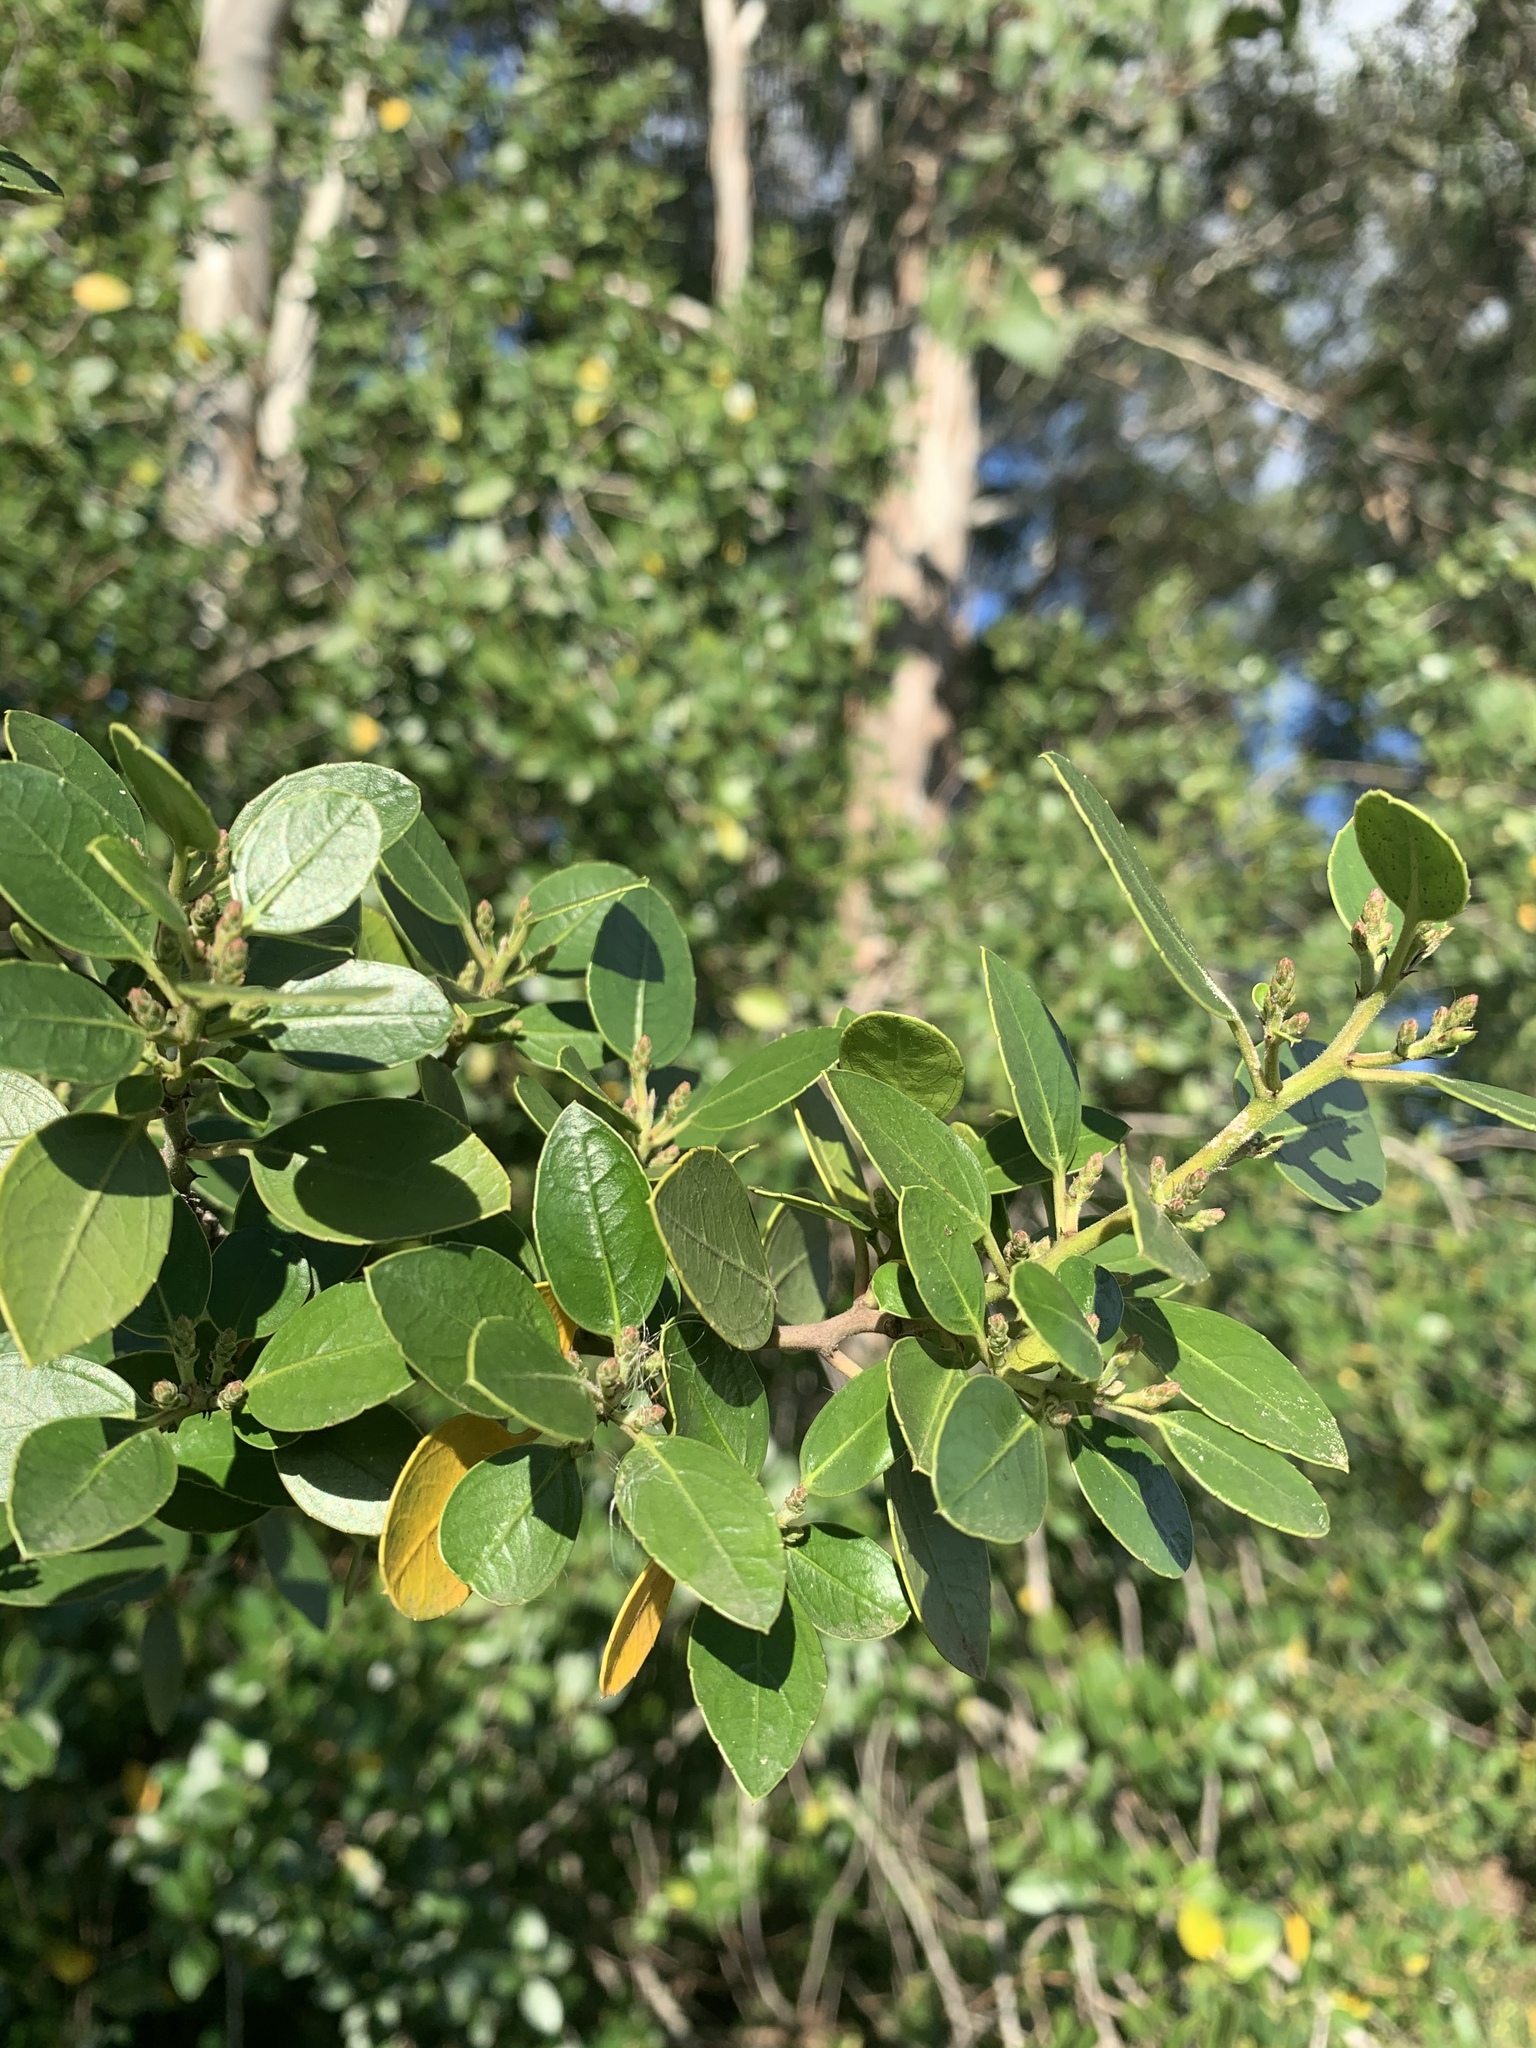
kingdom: Plantae
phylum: Tracheophyta
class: Magnoliopsida
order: Rosales
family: Rhamnaceae
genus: Rhamnus
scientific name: Rhamnus alaternus
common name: Mediterranean buckthorn
